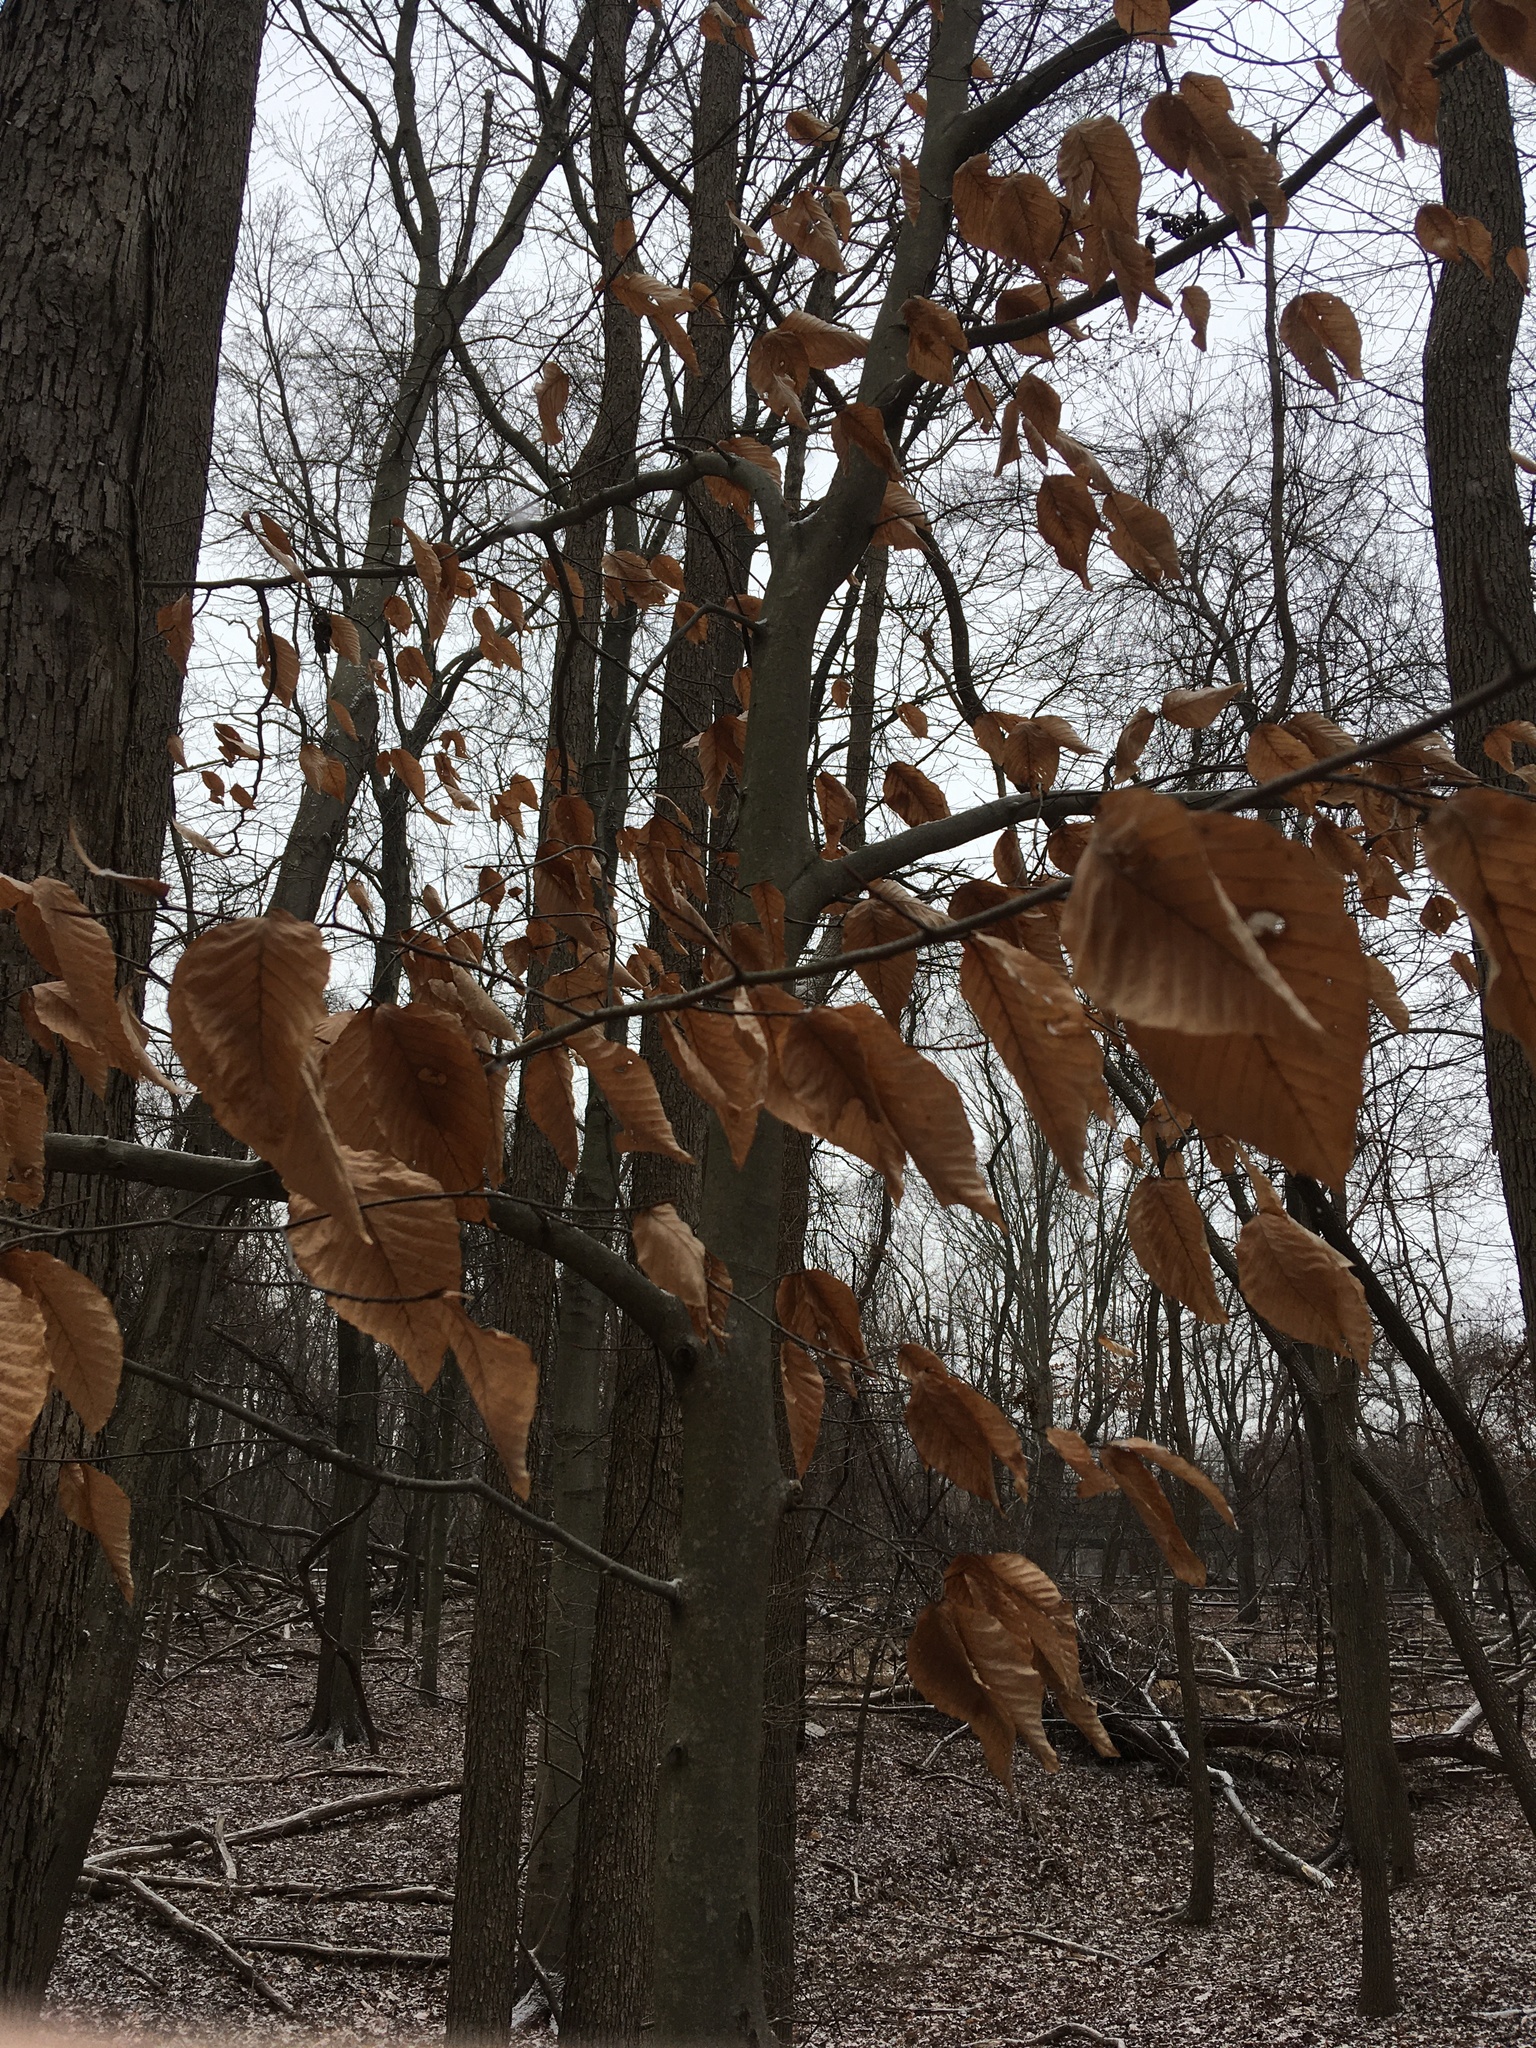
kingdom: Plantae
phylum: Tracheophyta
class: Magnoliopsida
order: Fagales
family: Fagaceae
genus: Fagus
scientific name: Fagus grandifolia
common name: American beech
